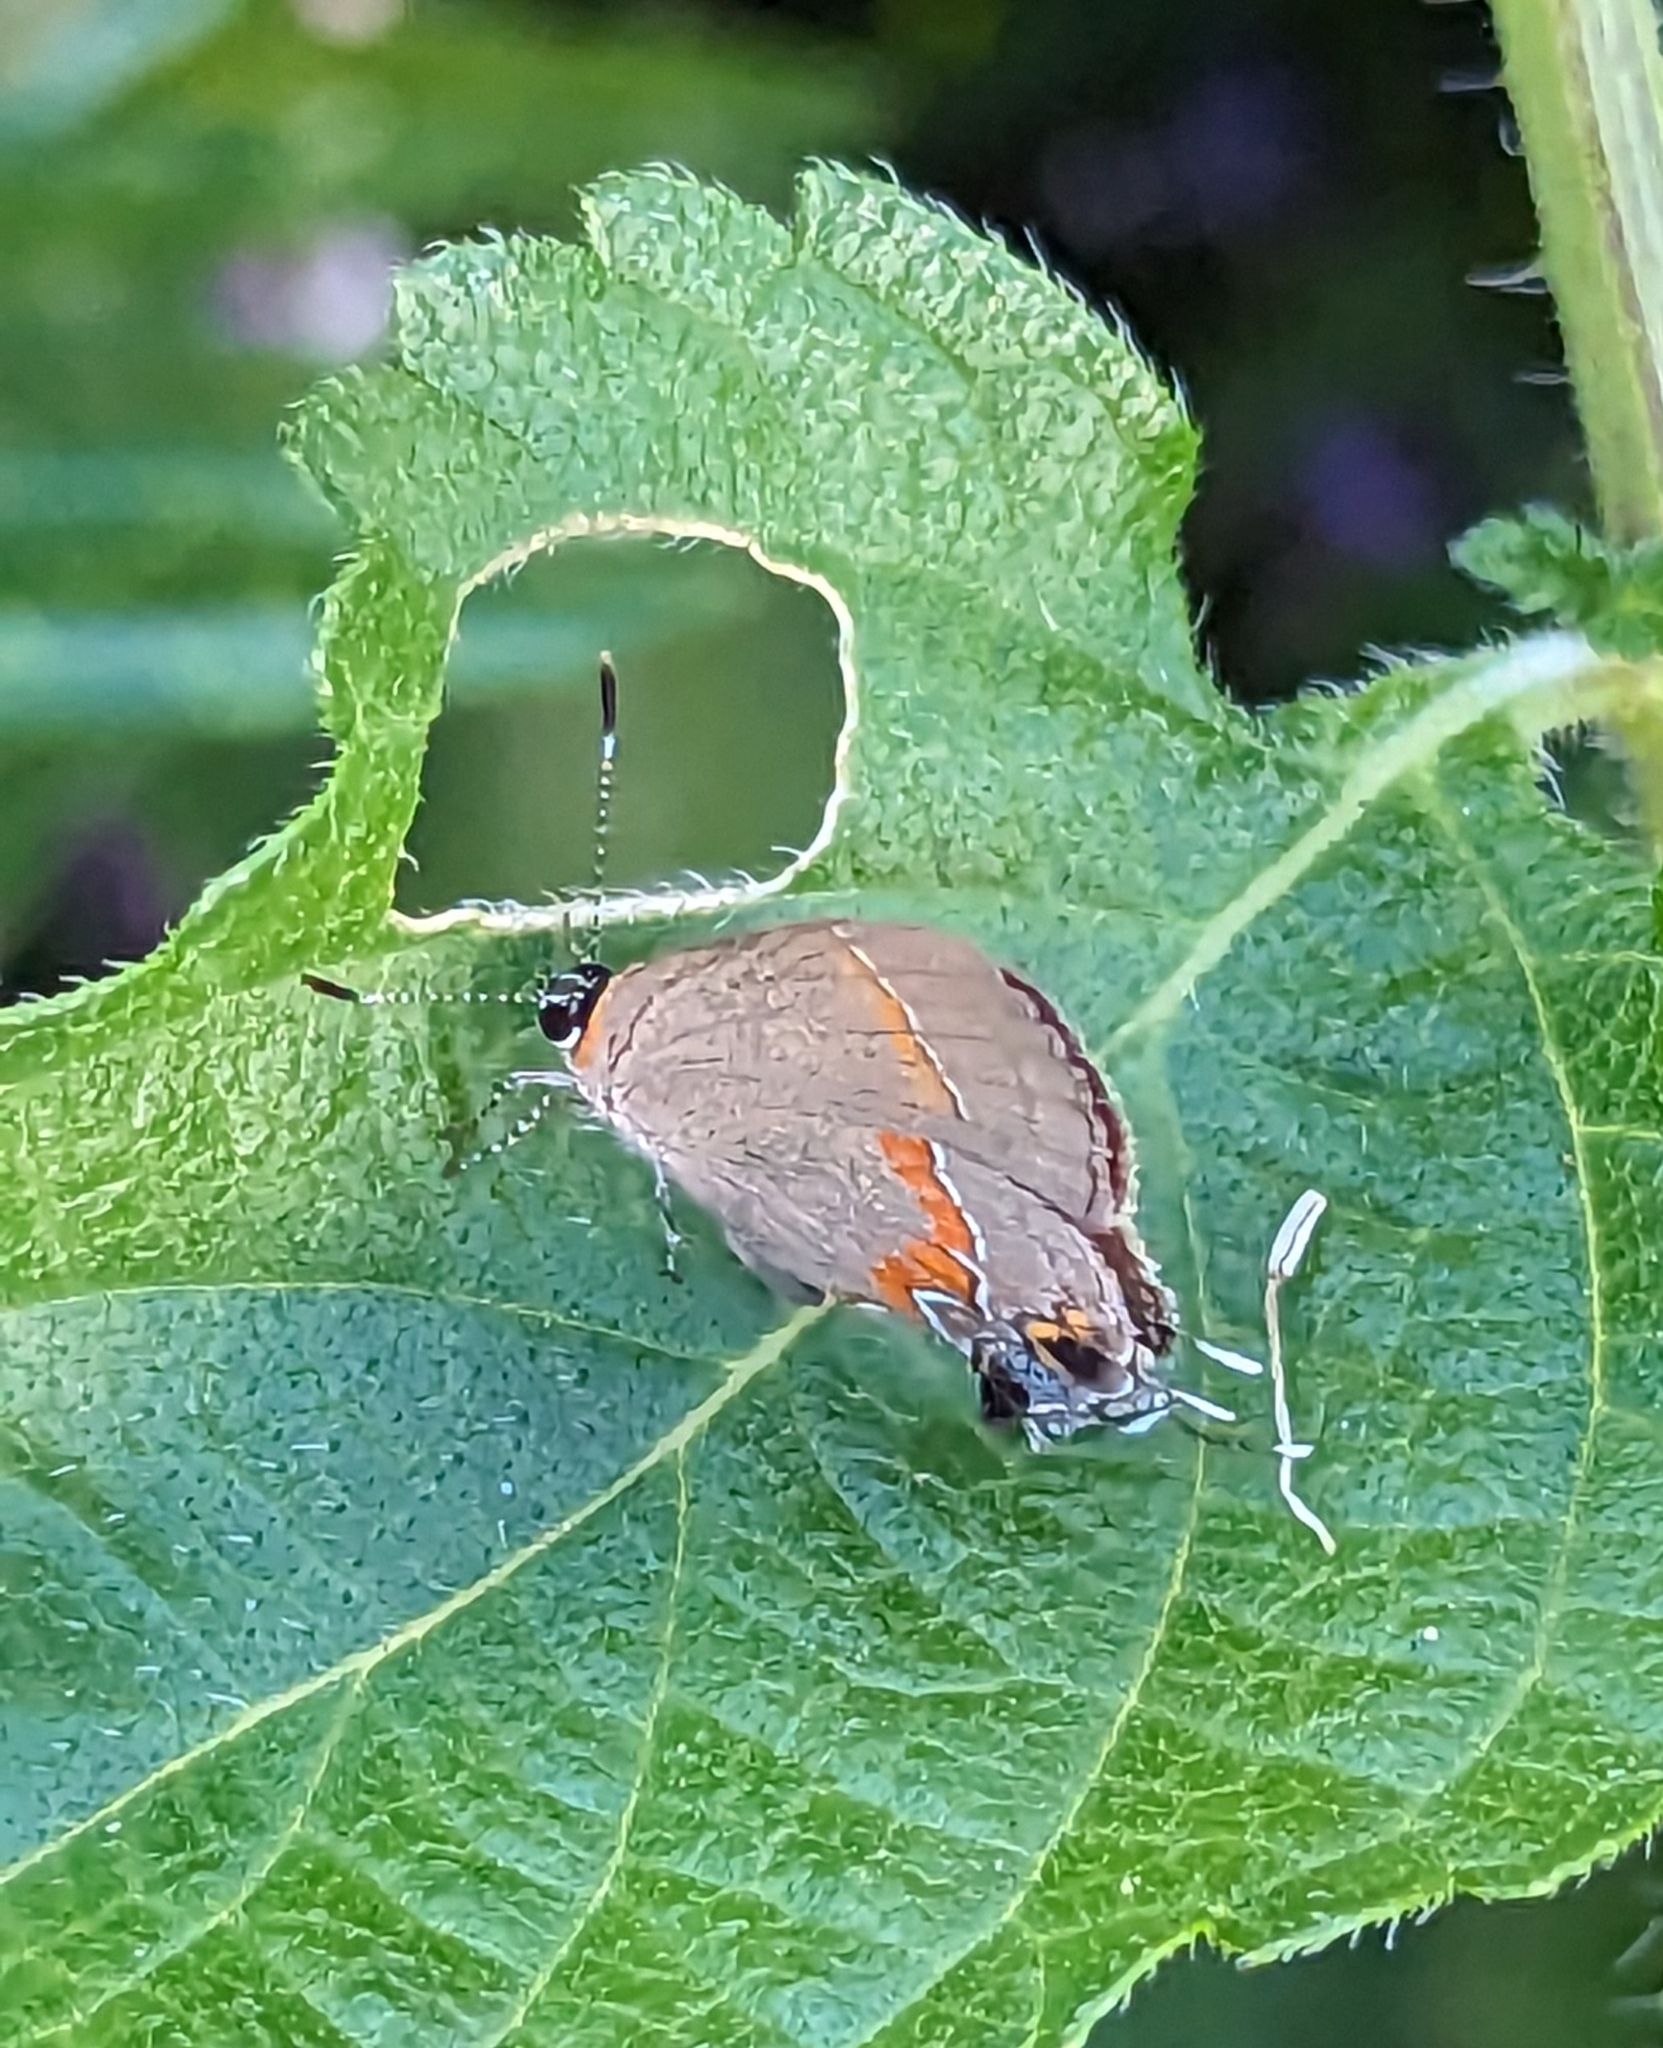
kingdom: Animalia
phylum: Arthropoda
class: Insecta
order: Lepidoptera
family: Lycaenidae
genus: Calycopis
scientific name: Calycopis cecrops
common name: Red-banded hairstreak
